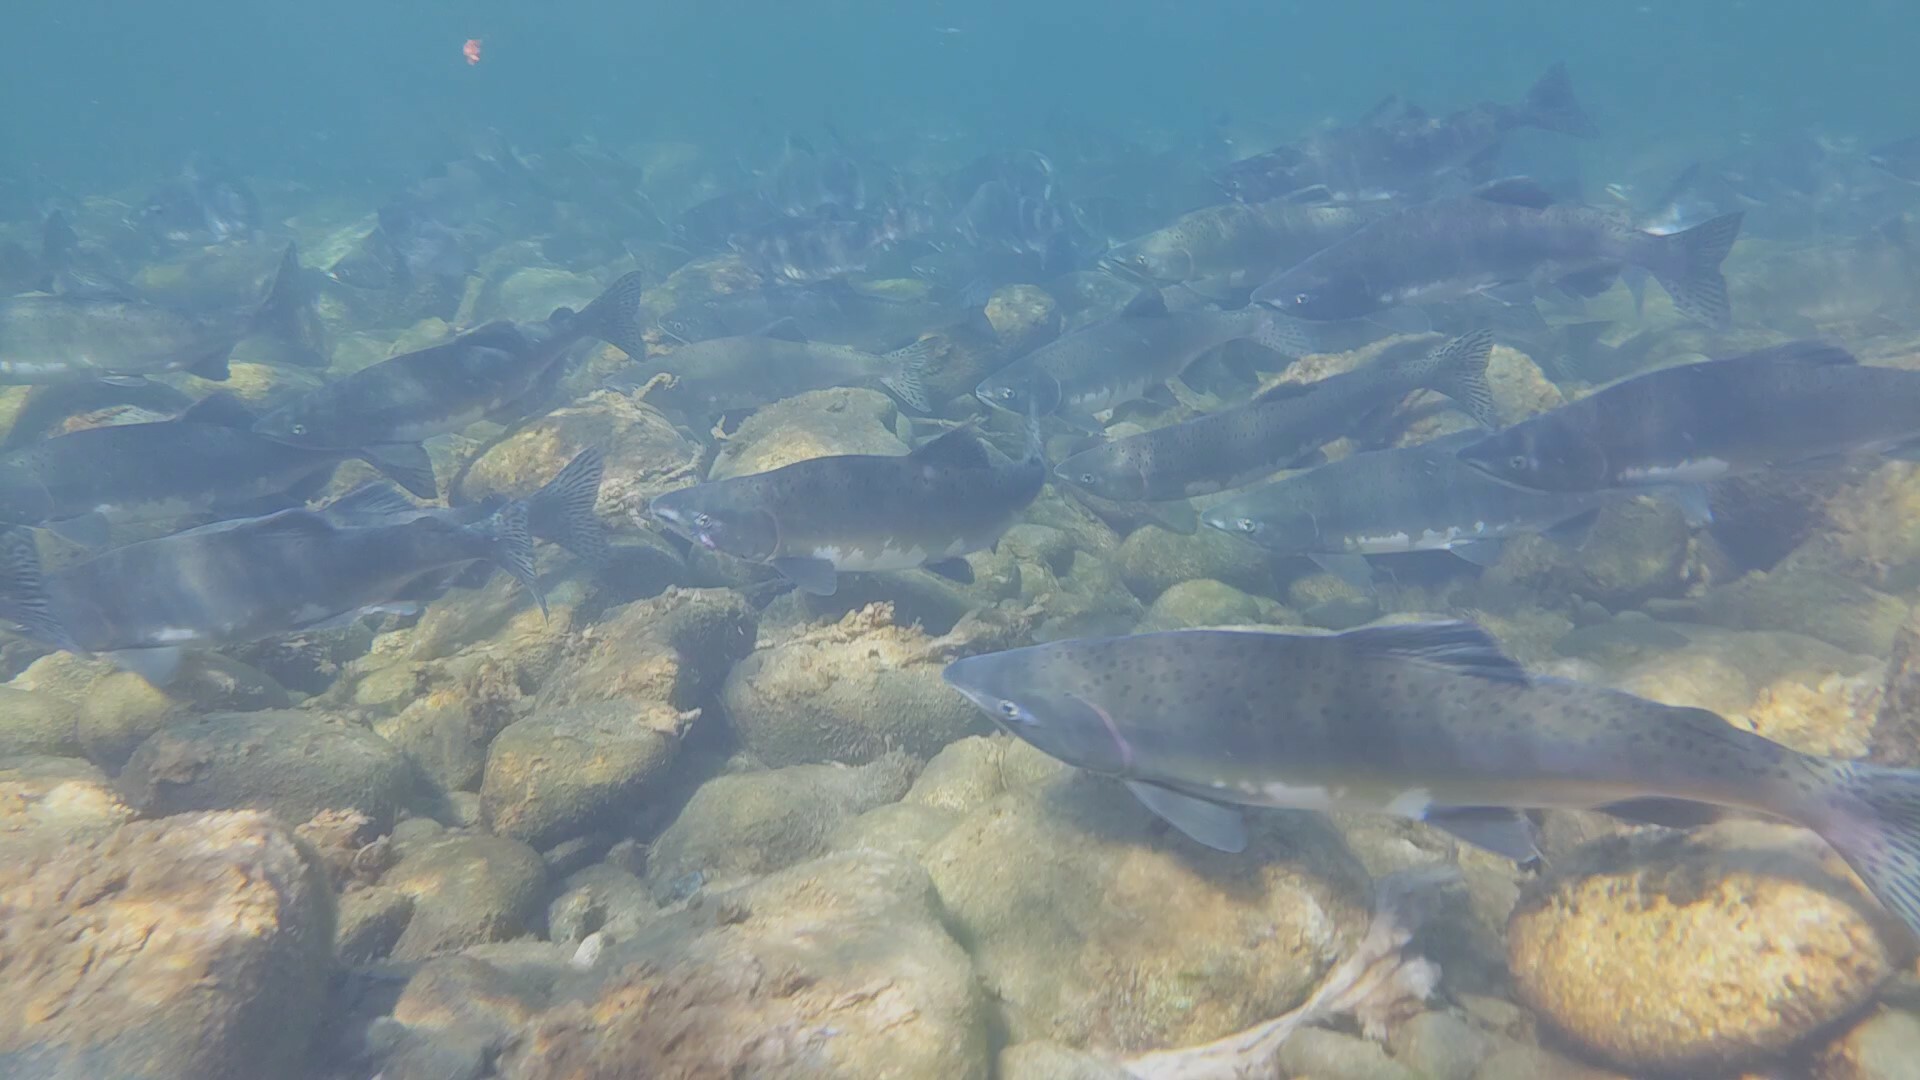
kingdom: Animalia
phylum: Chordata
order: Salmoniformes
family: Salmonidae
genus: Oncorhynchus
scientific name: Oncorhynchus gorbuscha
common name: Humpback salmon
